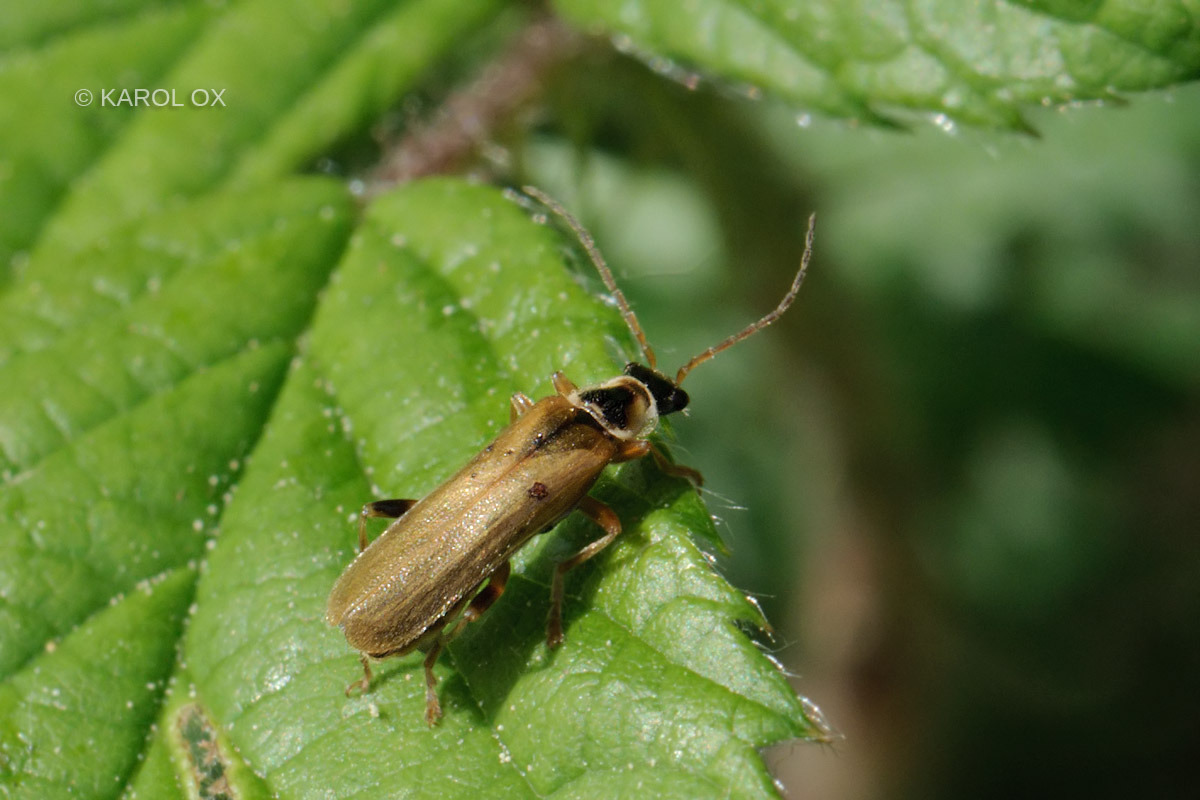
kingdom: Animalia
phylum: Arthropoda
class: Insecta
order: Coleoptera
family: Cantharidae
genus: Cantharis
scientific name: Cantharis decipiens
